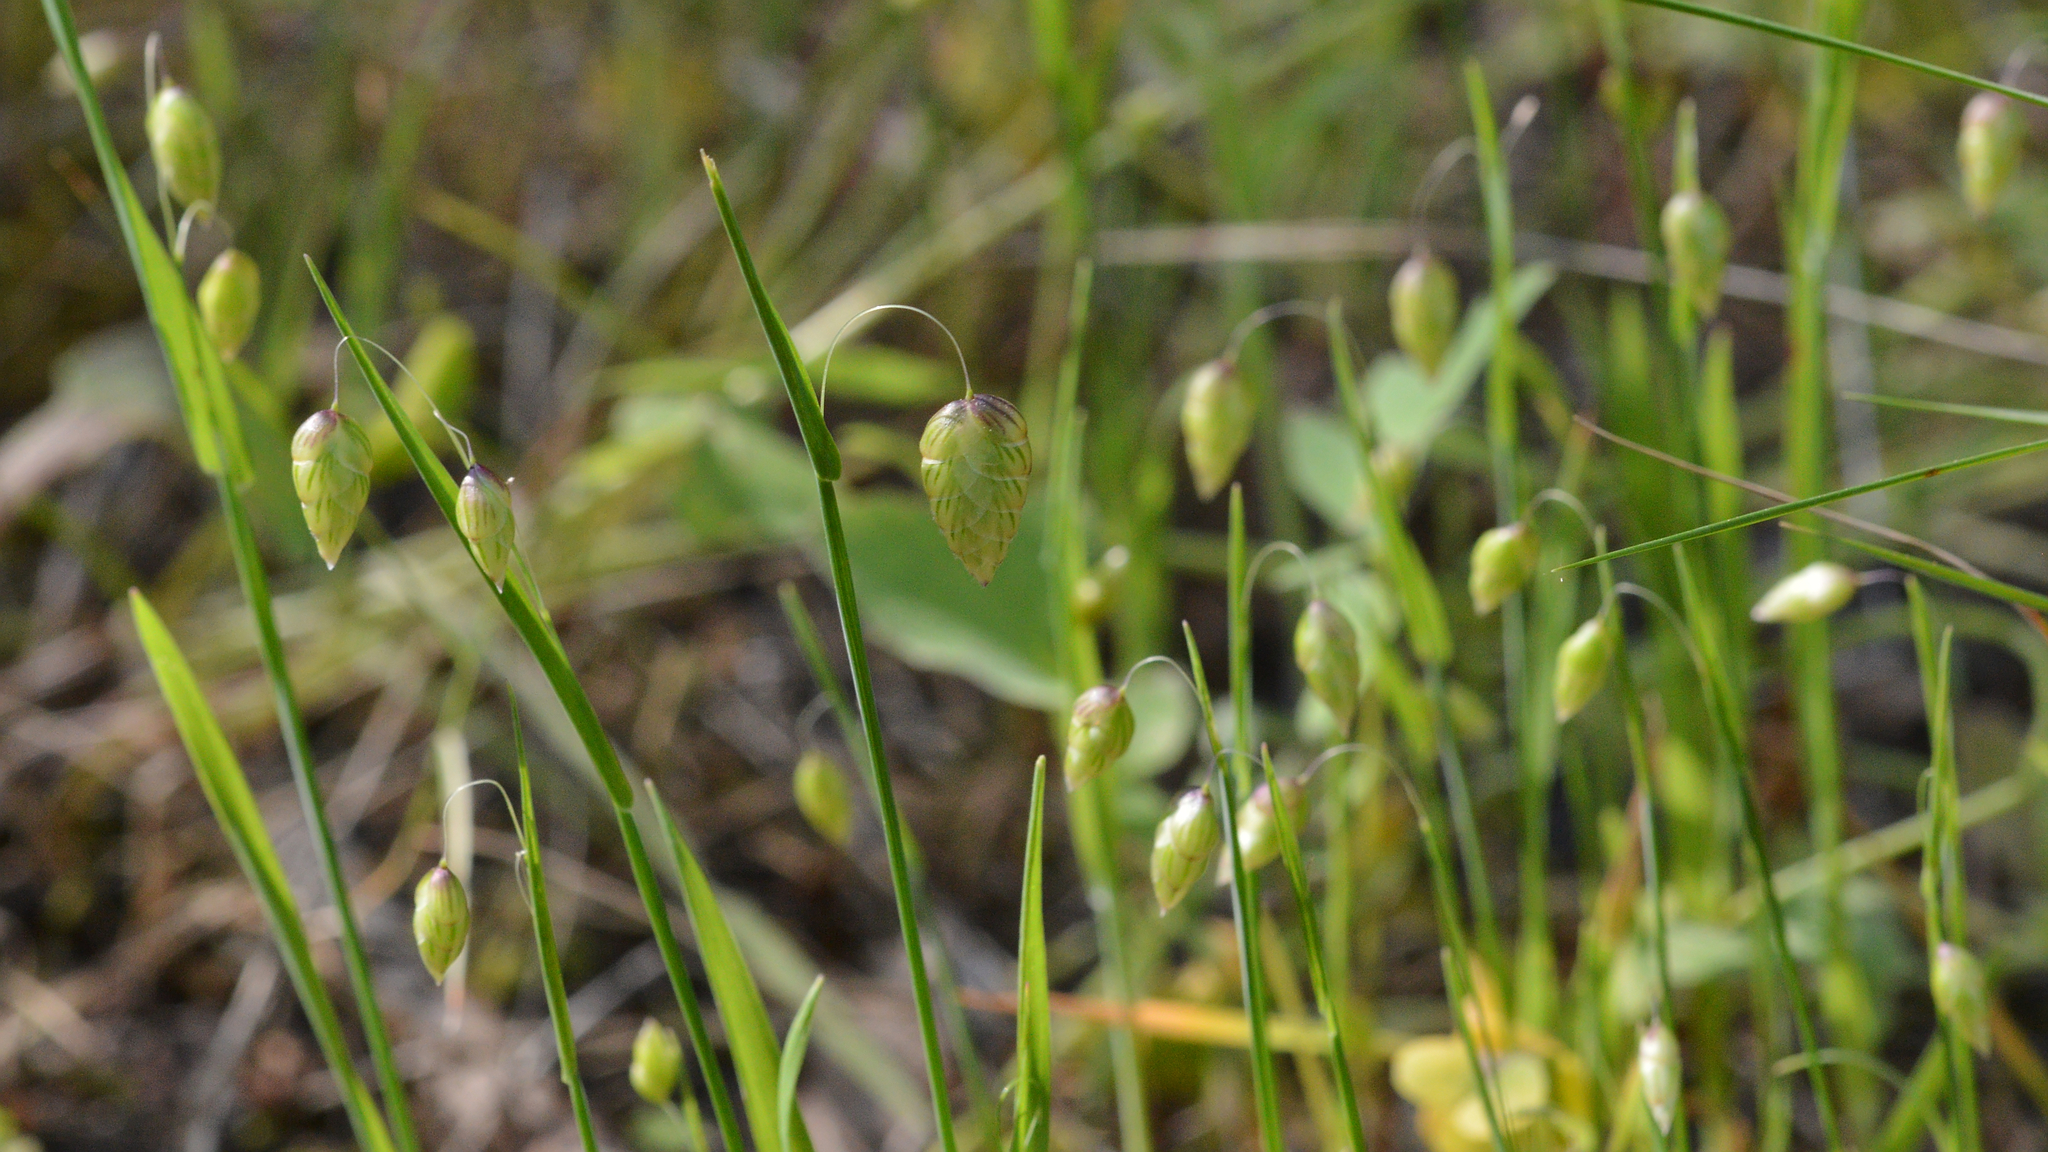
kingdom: Plantae
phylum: Tracheophyta
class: Liliopsida
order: Poales
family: Poaceae
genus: Briza
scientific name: Briza maxima
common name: Big quakinggrass
